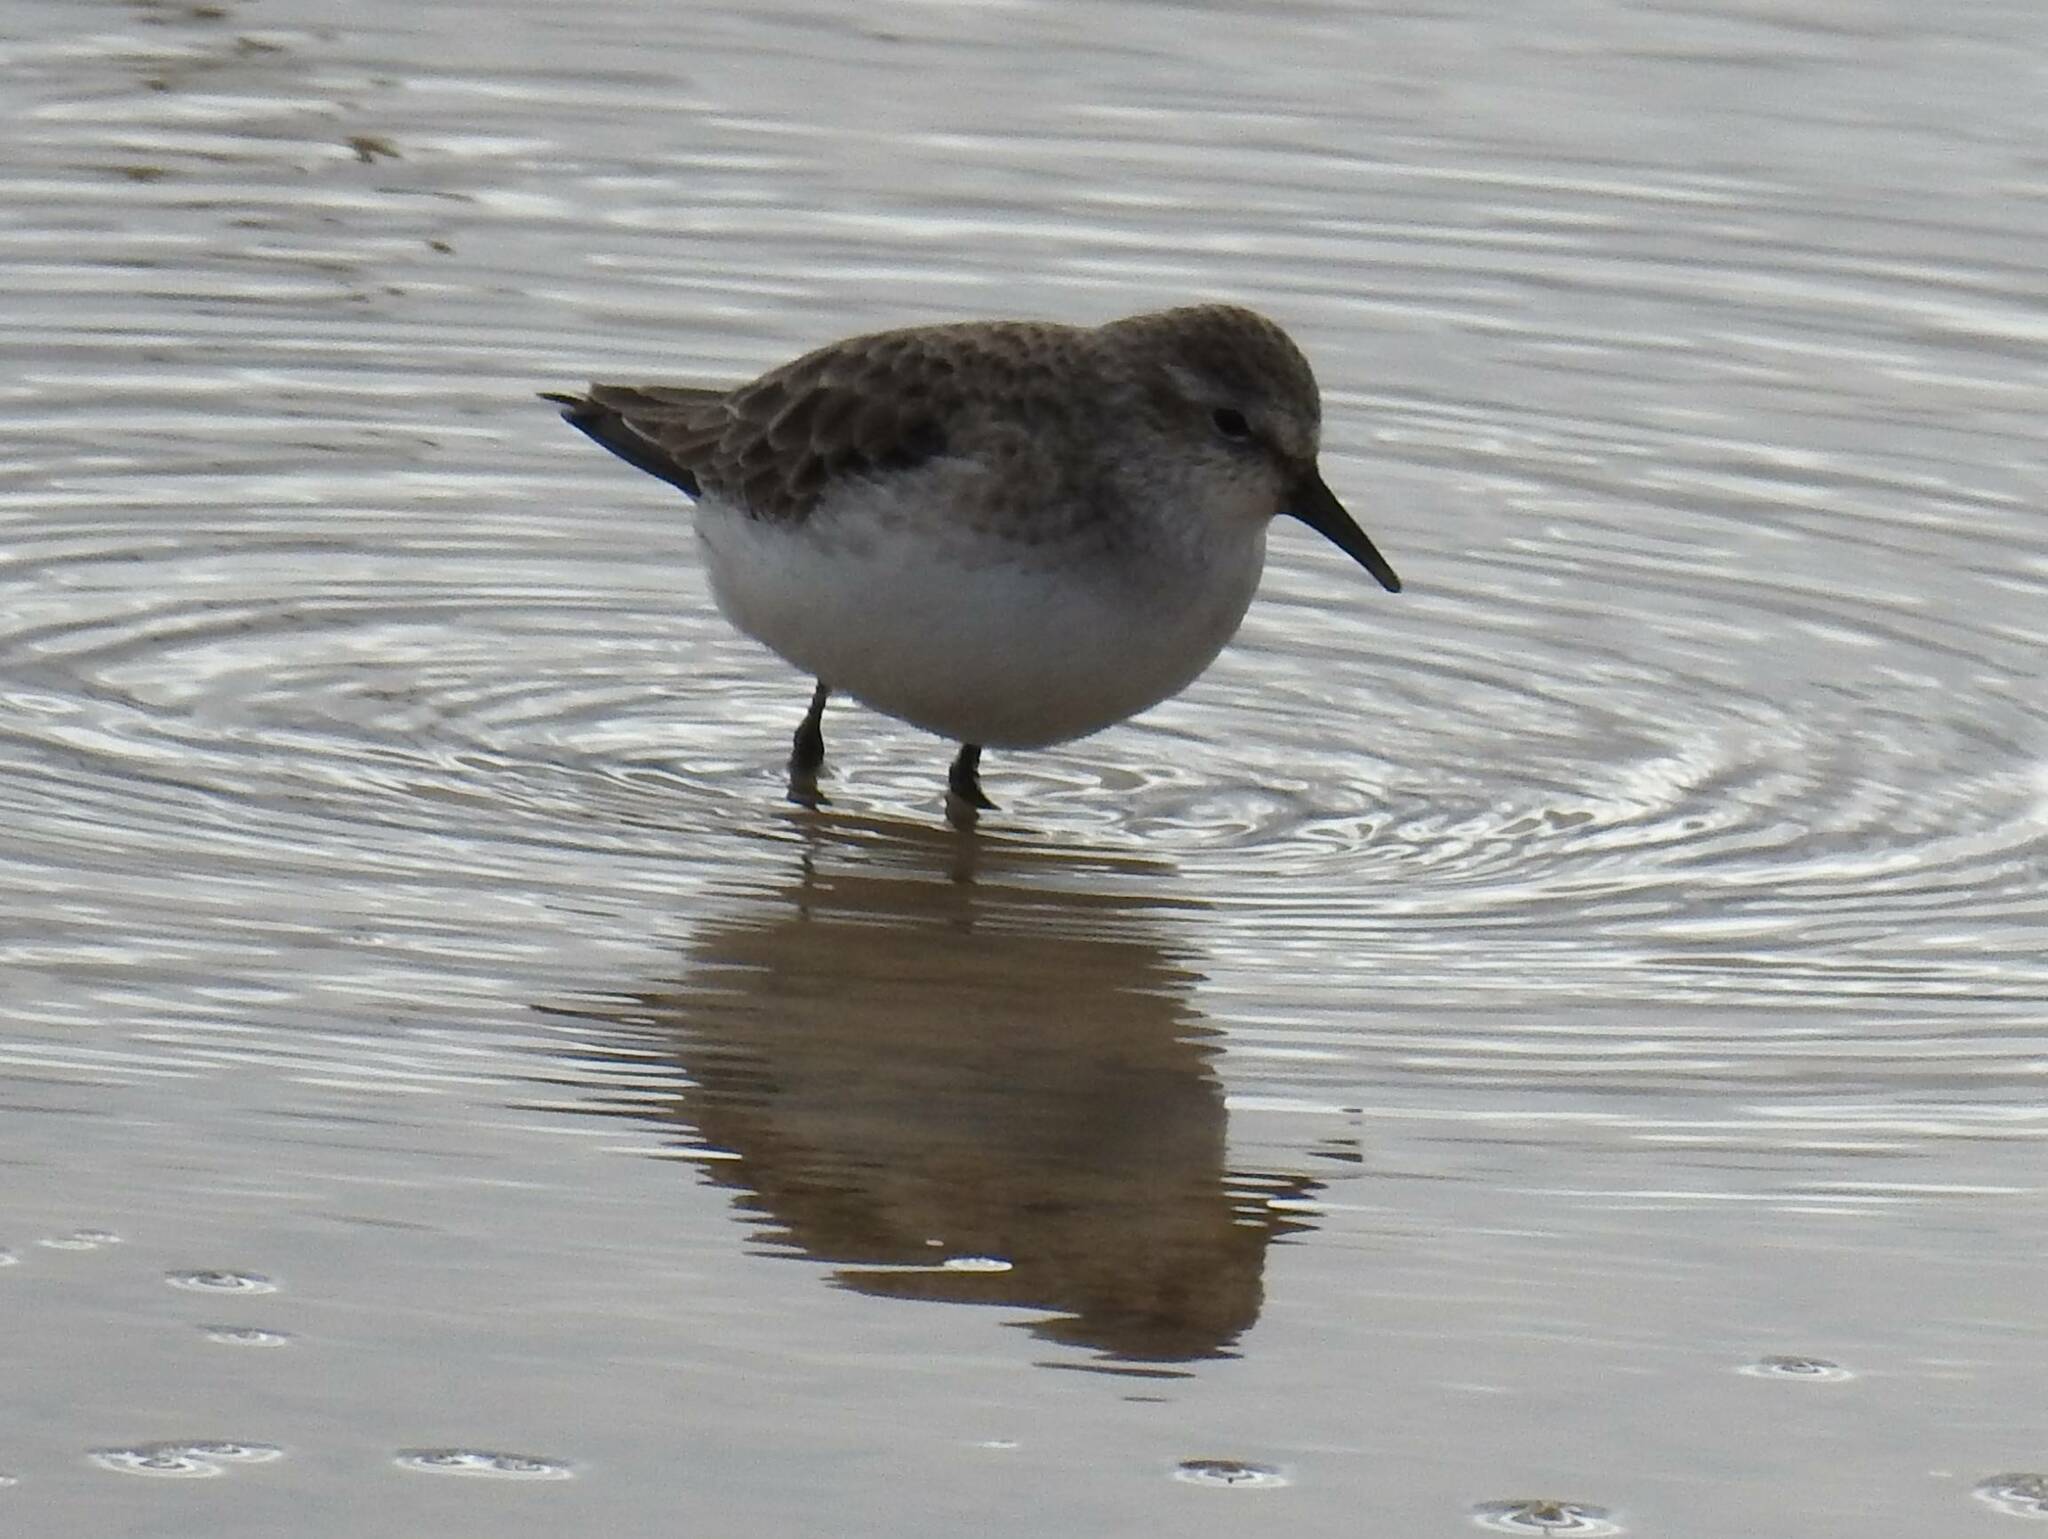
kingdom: Animalia
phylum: Chordata
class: Aves
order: Charadriiformes
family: Scolopacidae
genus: Calidris
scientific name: Calidris minuta
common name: Little stint
